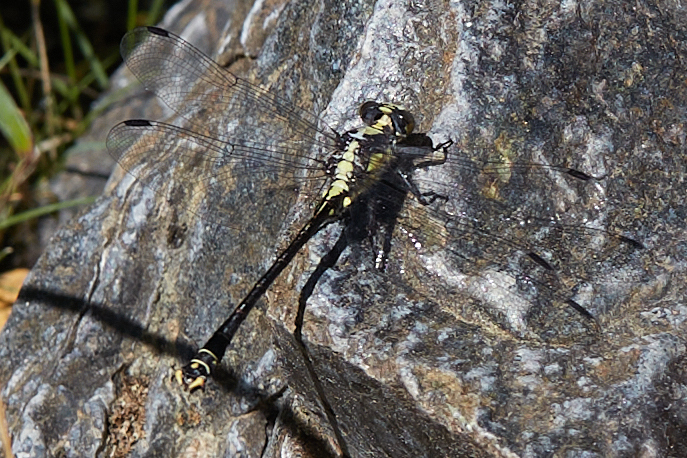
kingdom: Animalia
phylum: Arthropoda
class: Insecta
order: Odonata
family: Gomphidae
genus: Octogomphus
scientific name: Octogomphus specularis
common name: Grappletail
